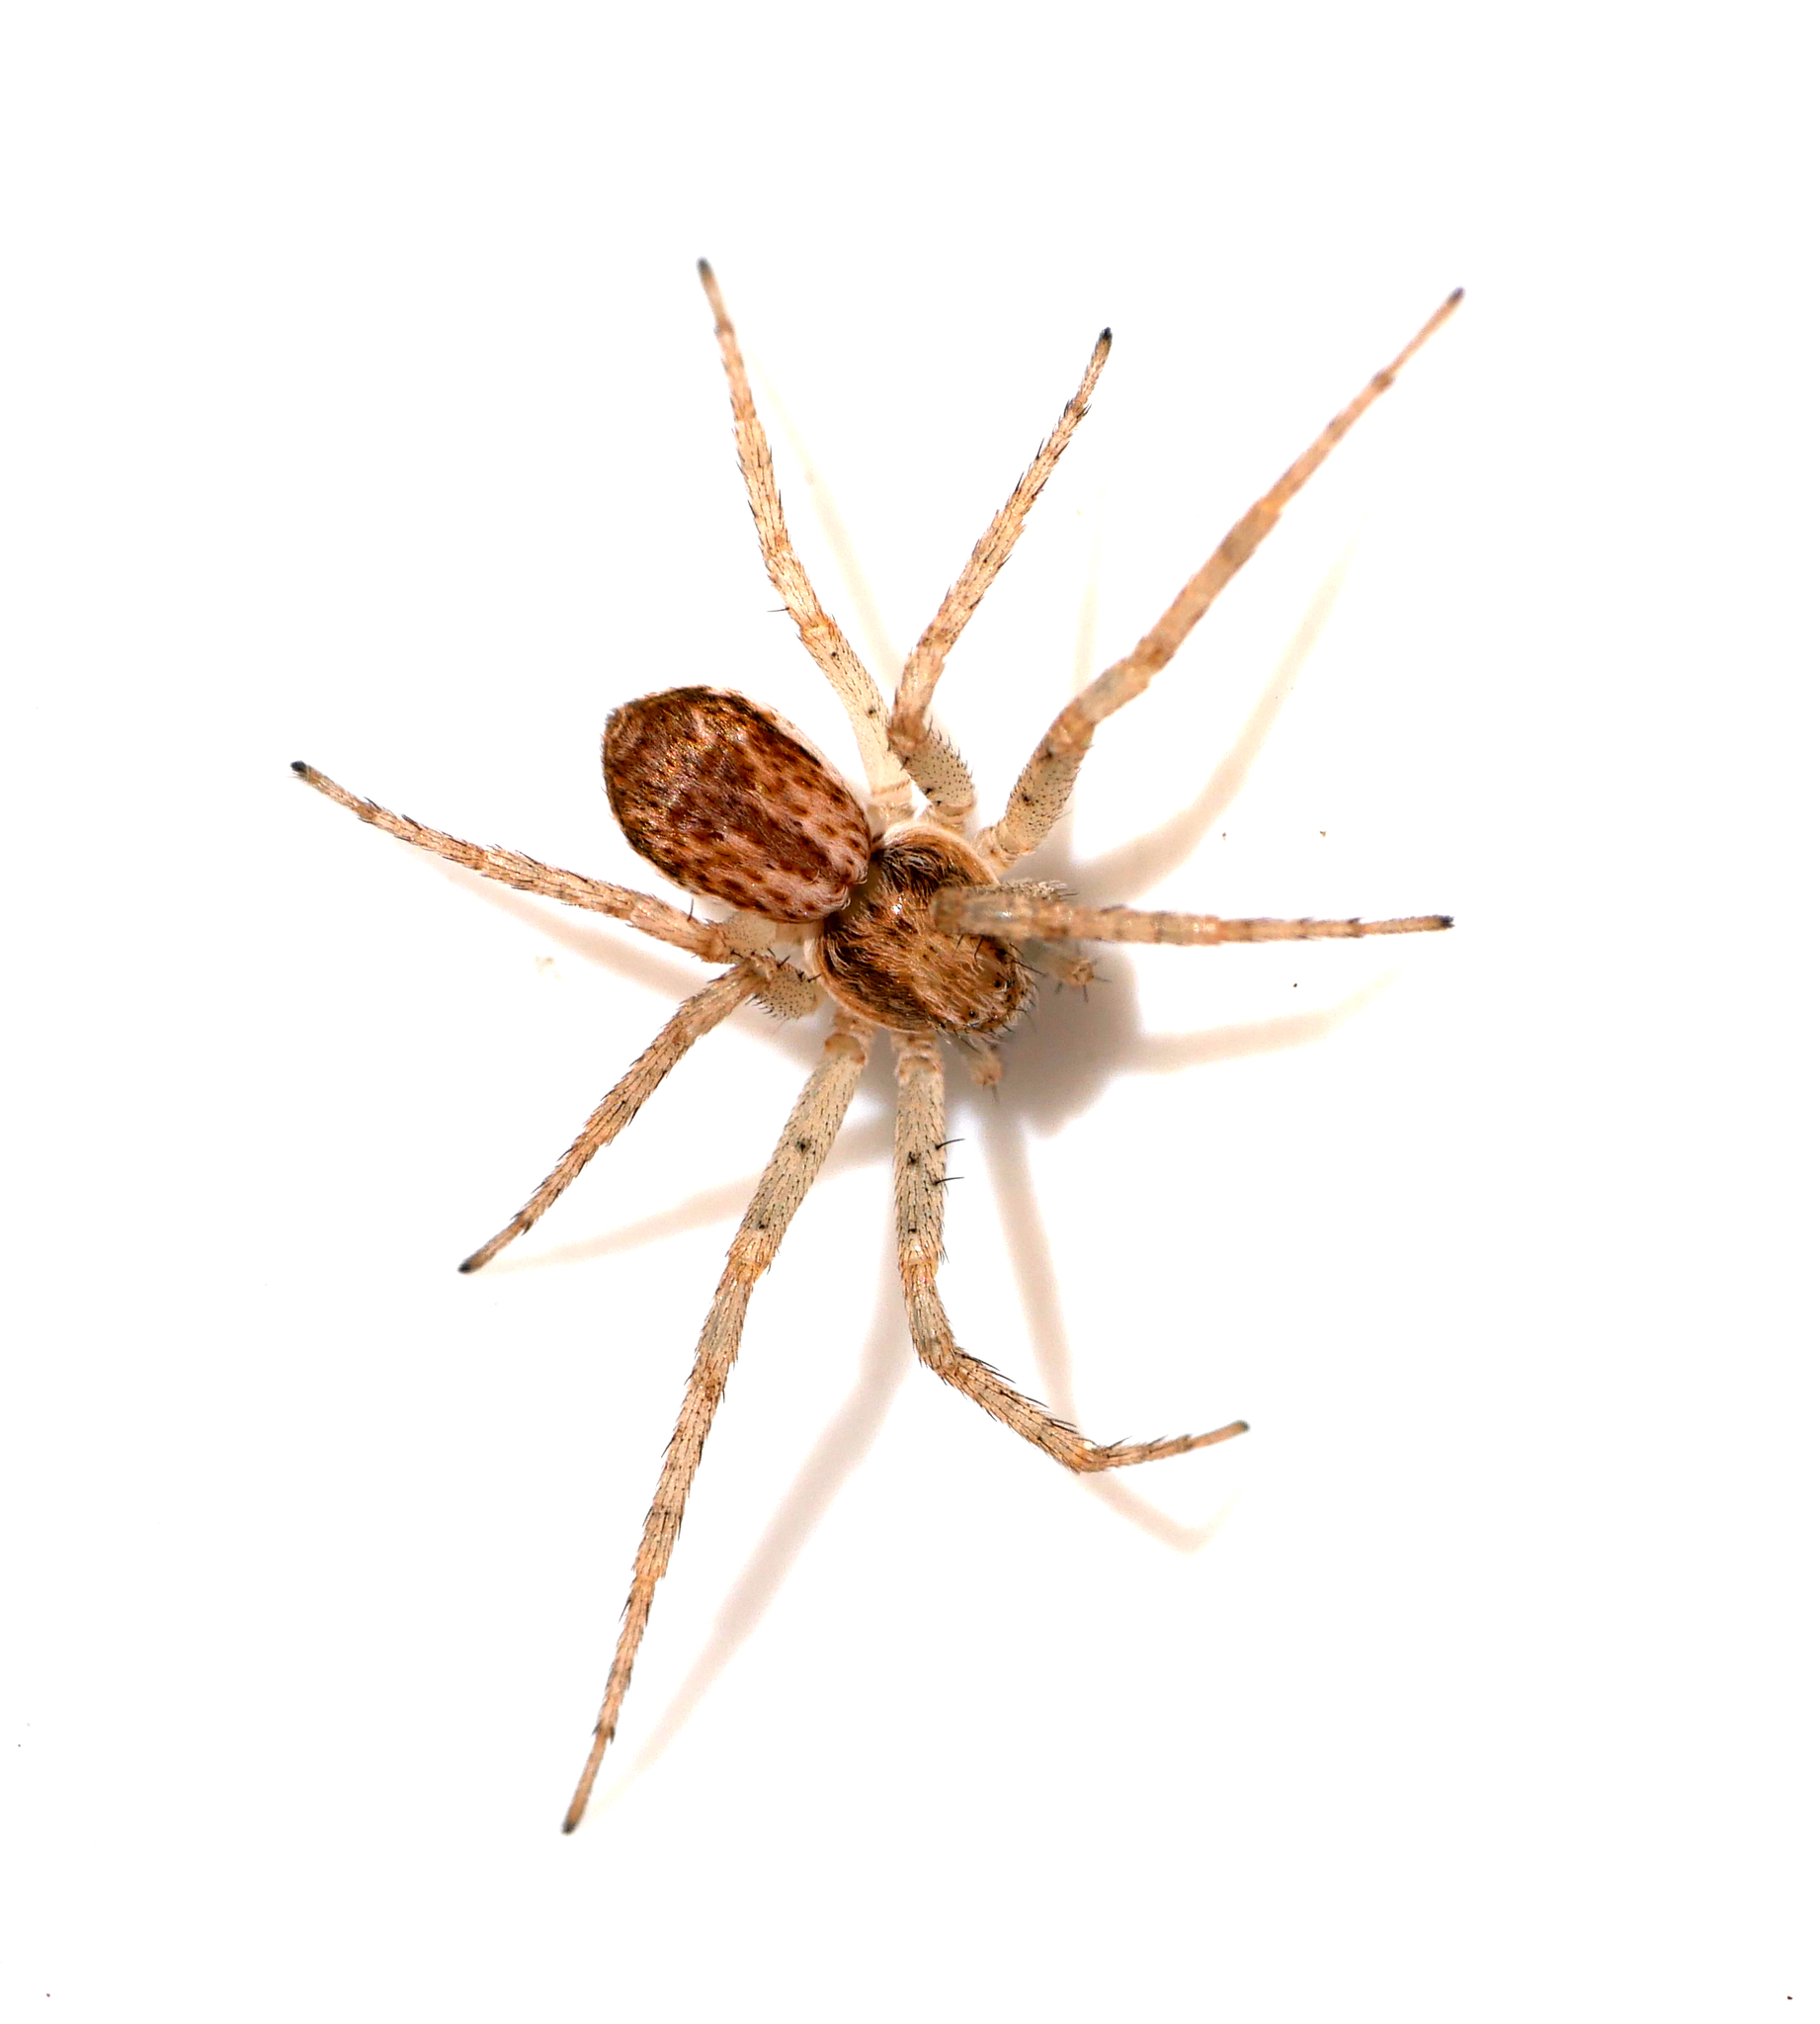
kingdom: Animalia
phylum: Arthropoda
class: Arachnida
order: Araneae
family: Philodromidae
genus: Philodromus
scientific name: Philodromus dispar
